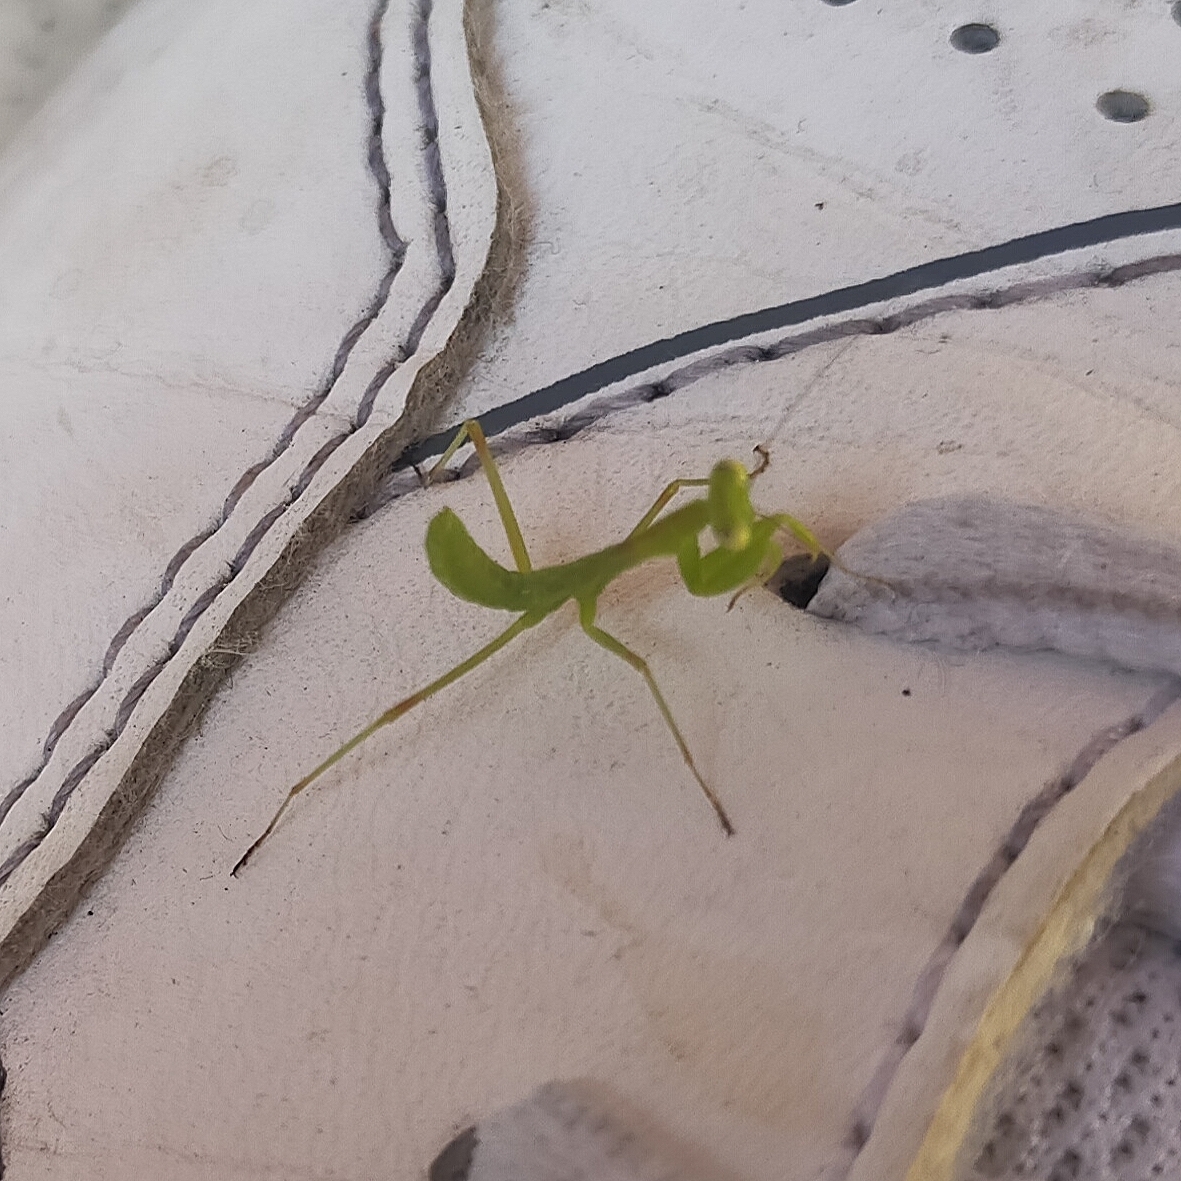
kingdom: Animalia
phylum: Arthropoda
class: Insecta
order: Mantodea
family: Mantidae
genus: Hierodula
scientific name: Hierodula transcaucasica
